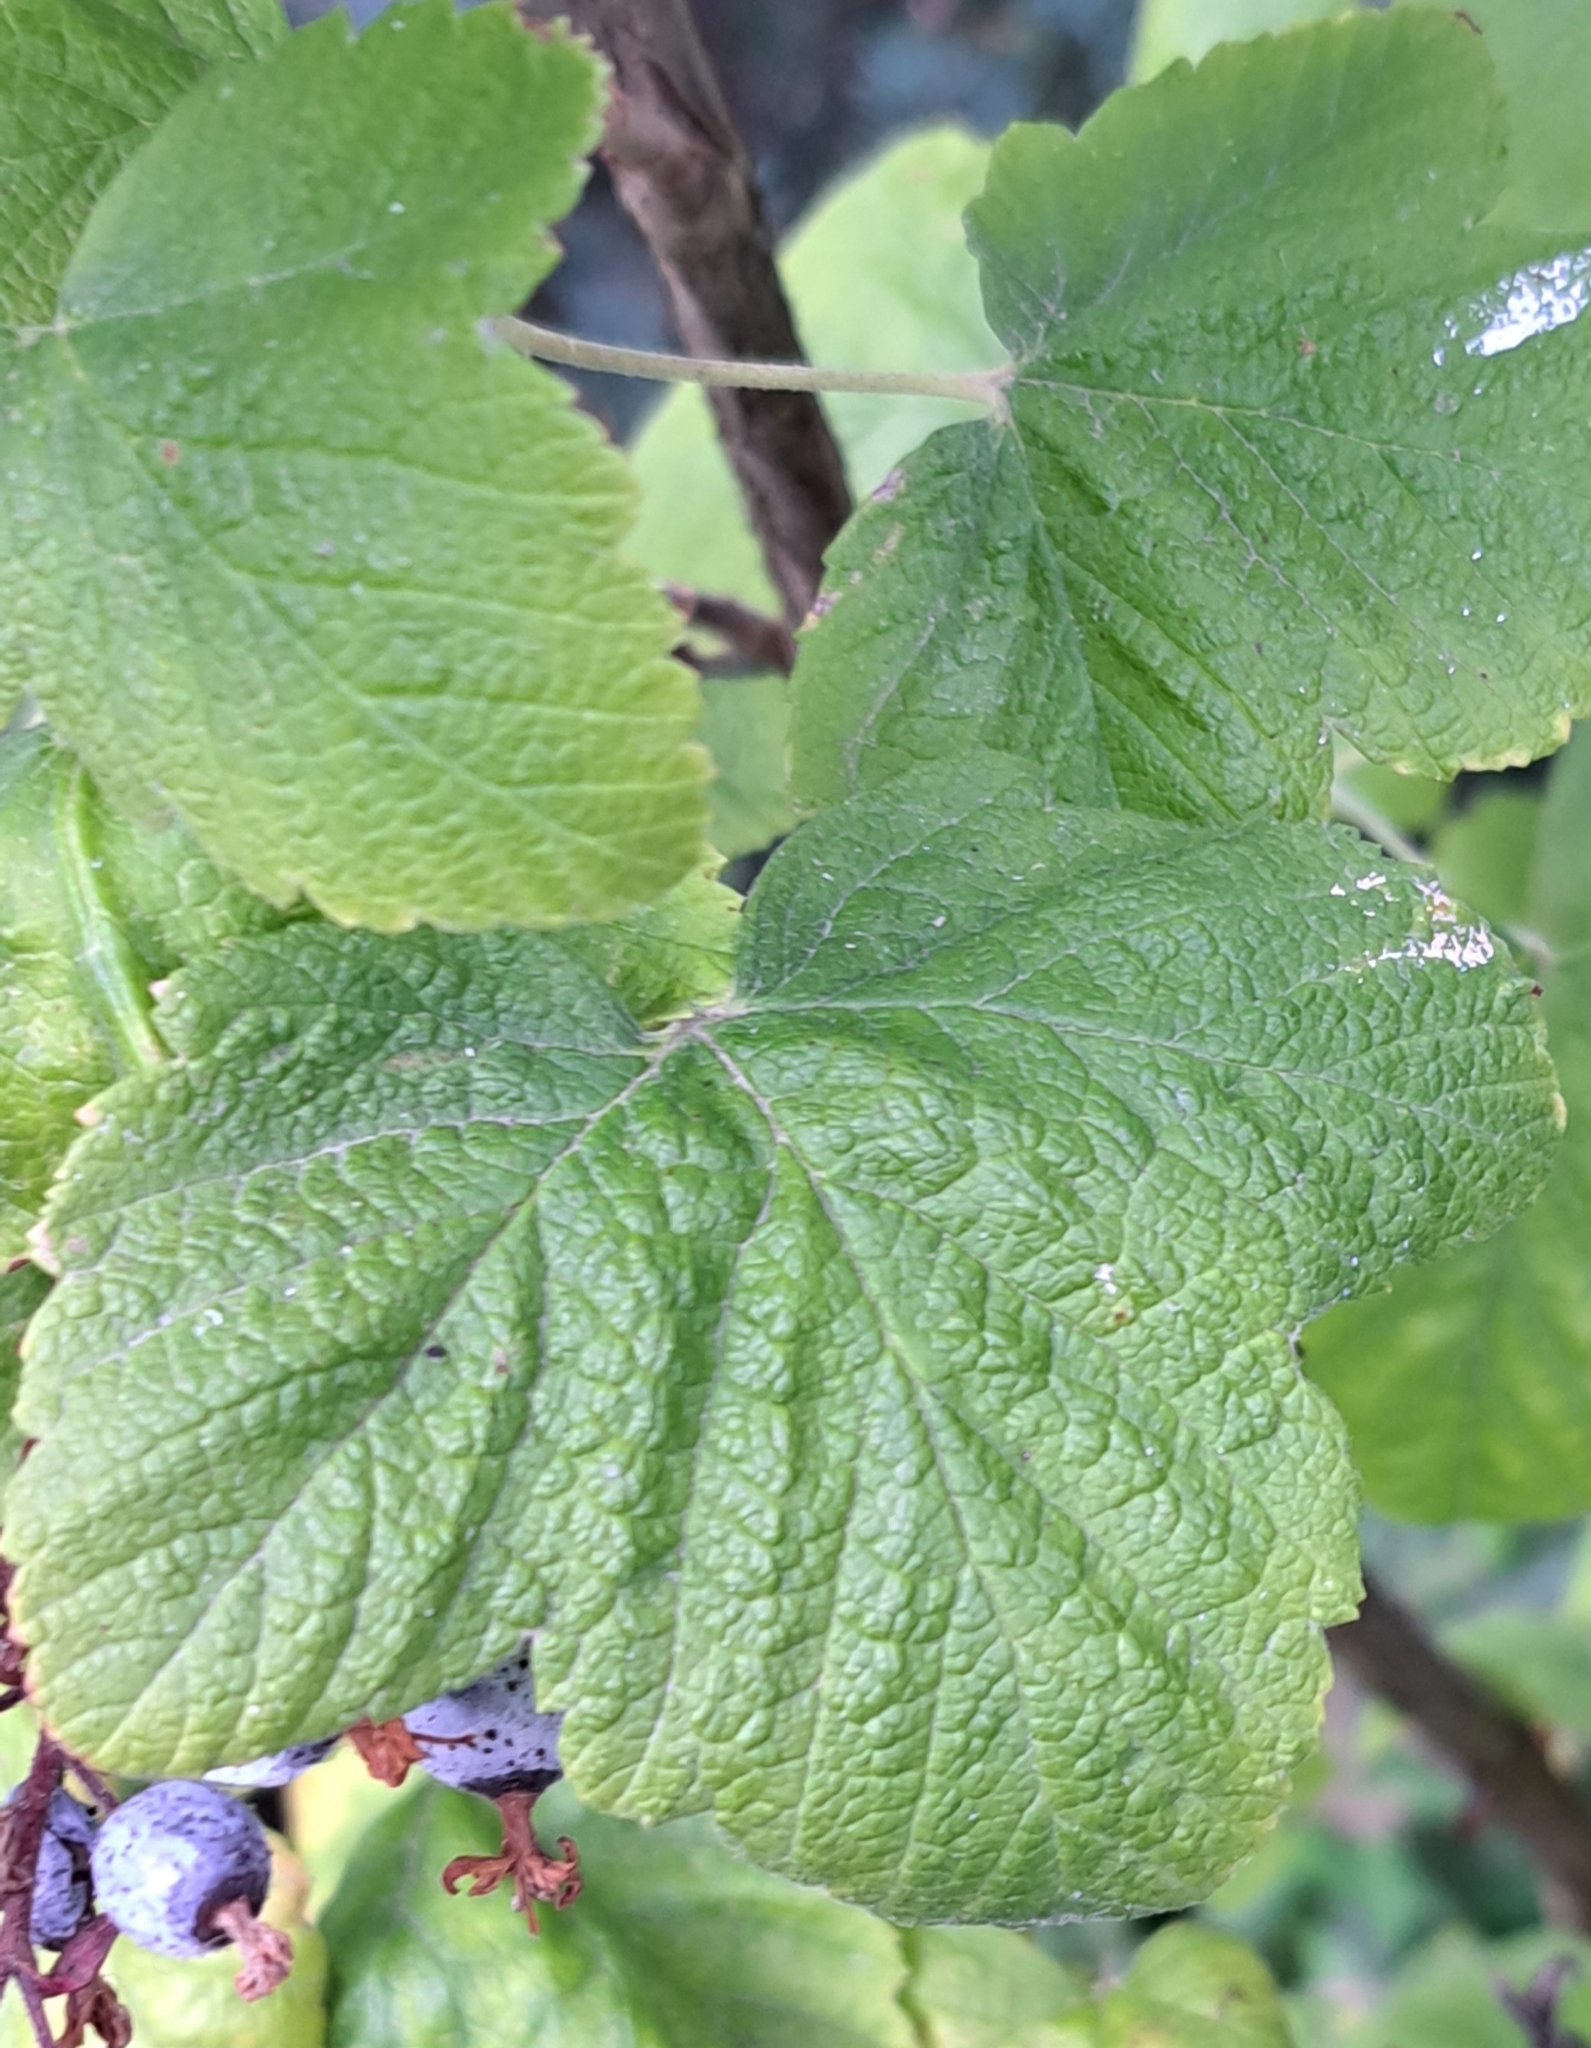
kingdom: Plantae
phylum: Tracheophyta
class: Magnoliopsida
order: Saxifragales
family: Grossulariaceae
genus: Ribes
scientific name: Ribes sanguineum
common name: Flowering currant
